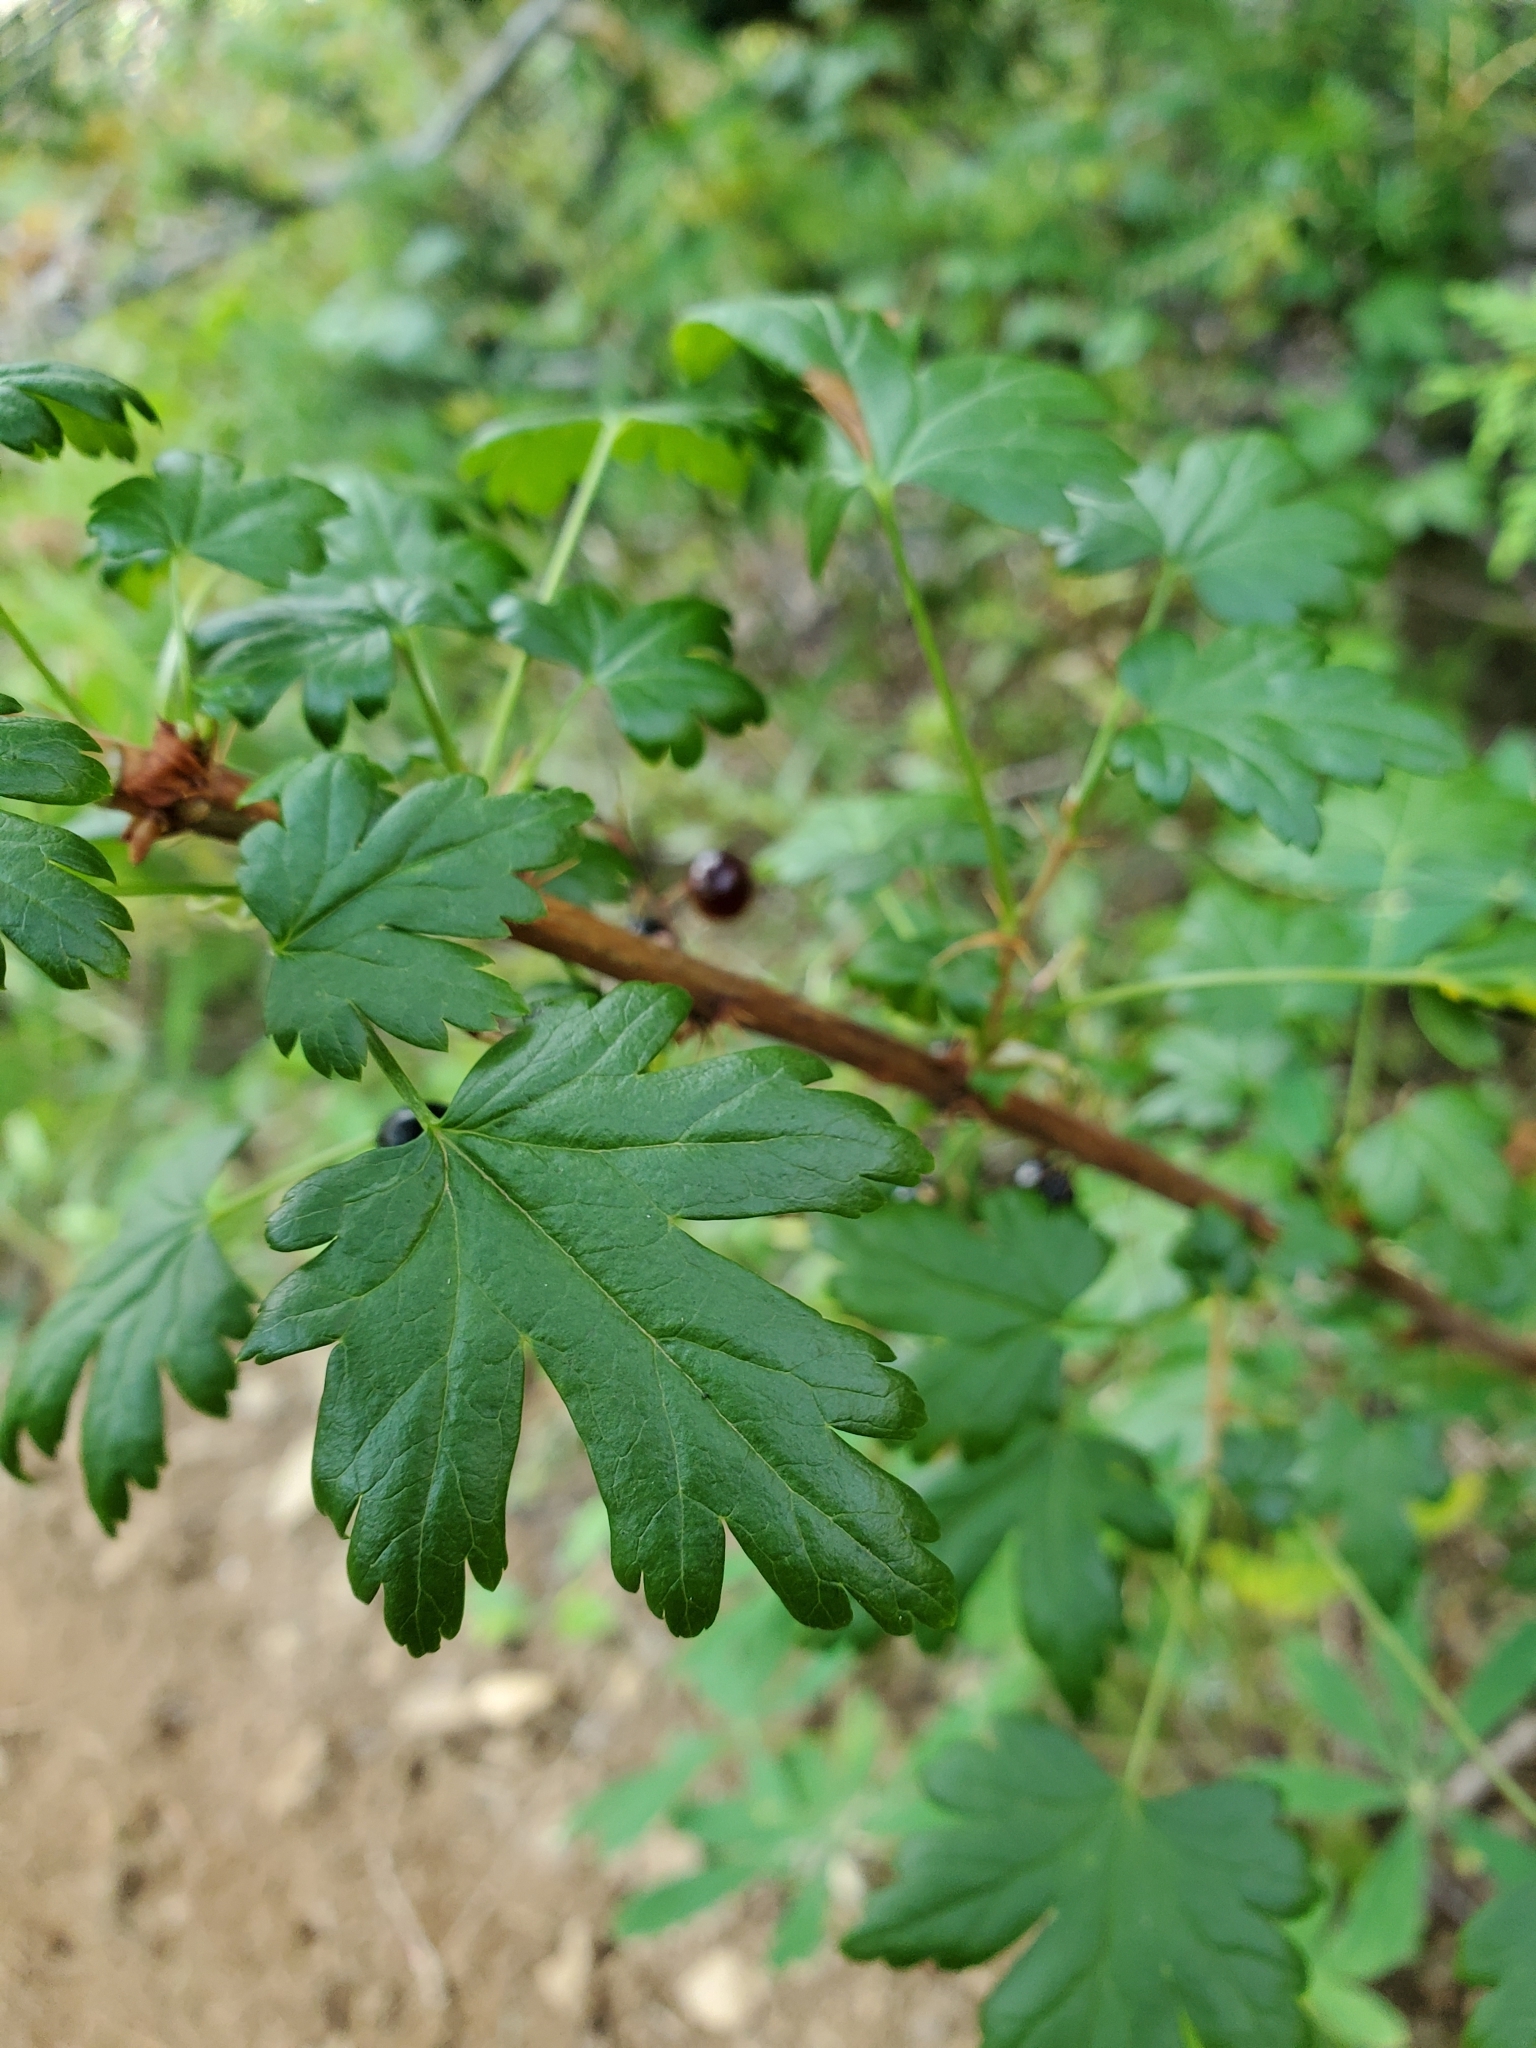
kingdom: Plantae
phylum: Tracheophyta
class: Magnoliopsida
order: Saxifragales
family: Grossulariaceae
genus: Ribes
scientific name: Ribes lacustre
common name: Black gooseberry
